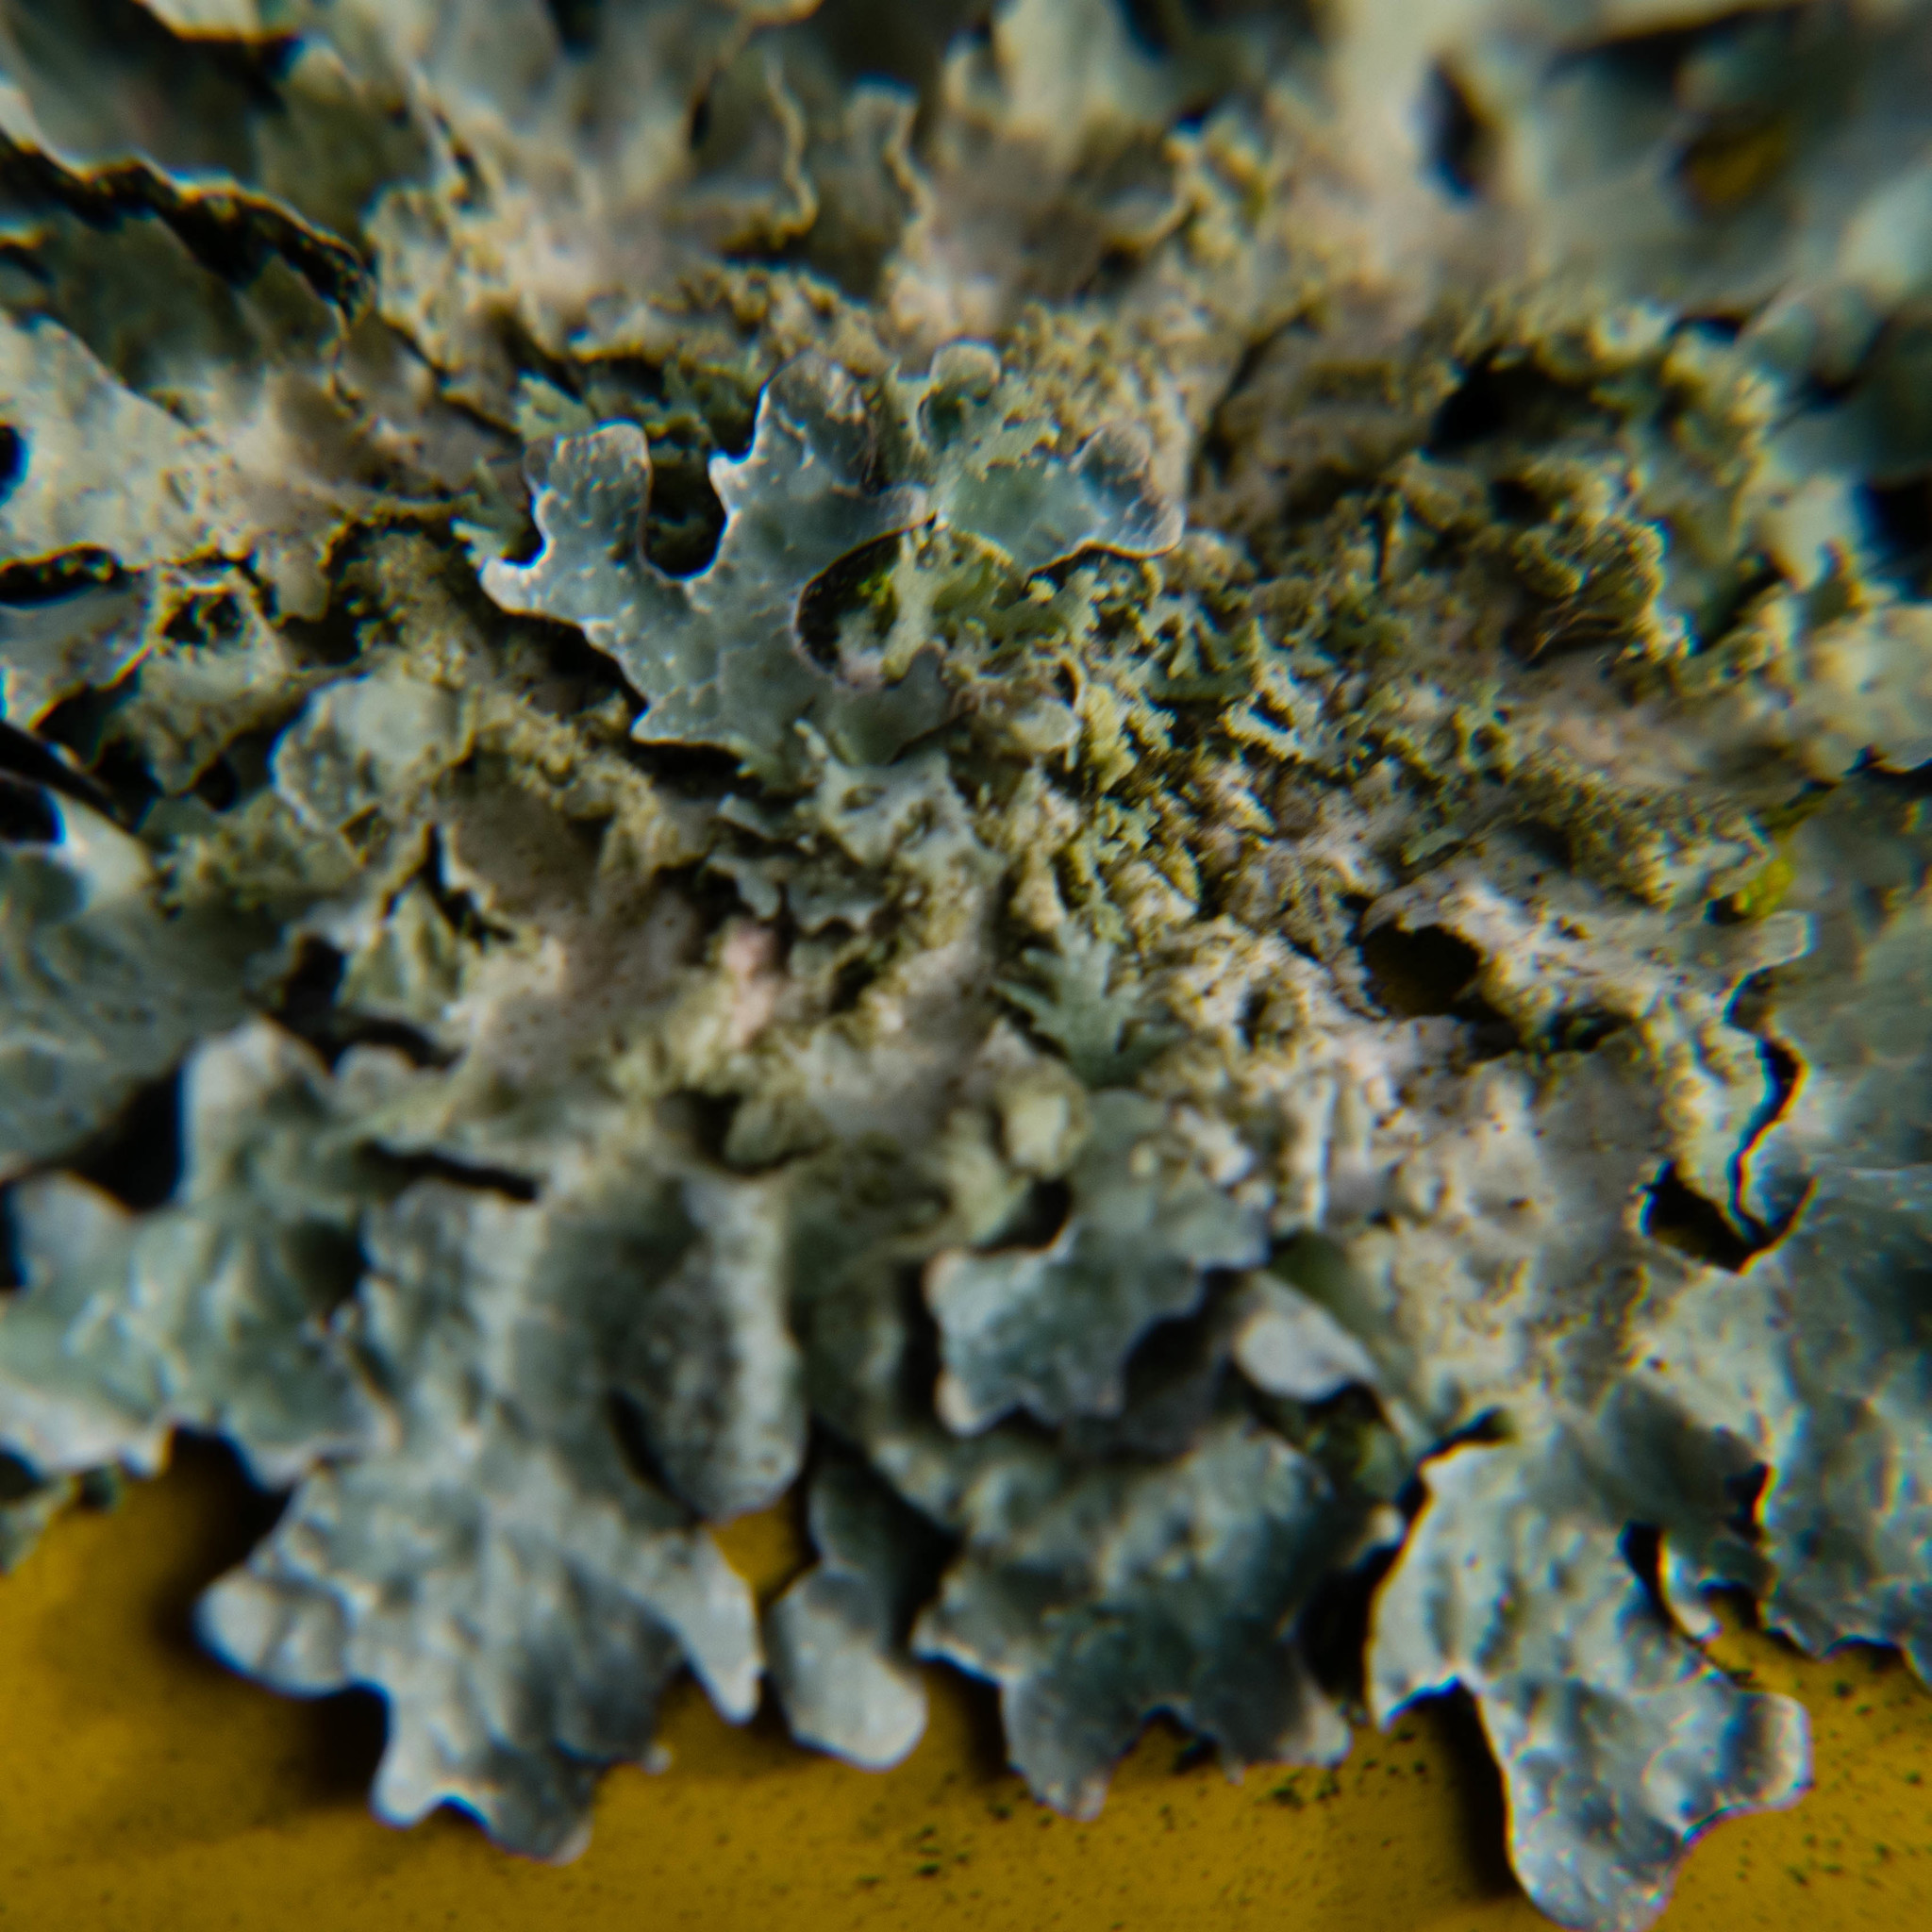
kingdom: Fungi
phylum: Ascomycota
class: Lecanoromycetes
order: Lecanorales
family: Parmeliaceae
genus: Parmelia
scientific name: Parmelia sulcata
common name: Netted shield lichen
